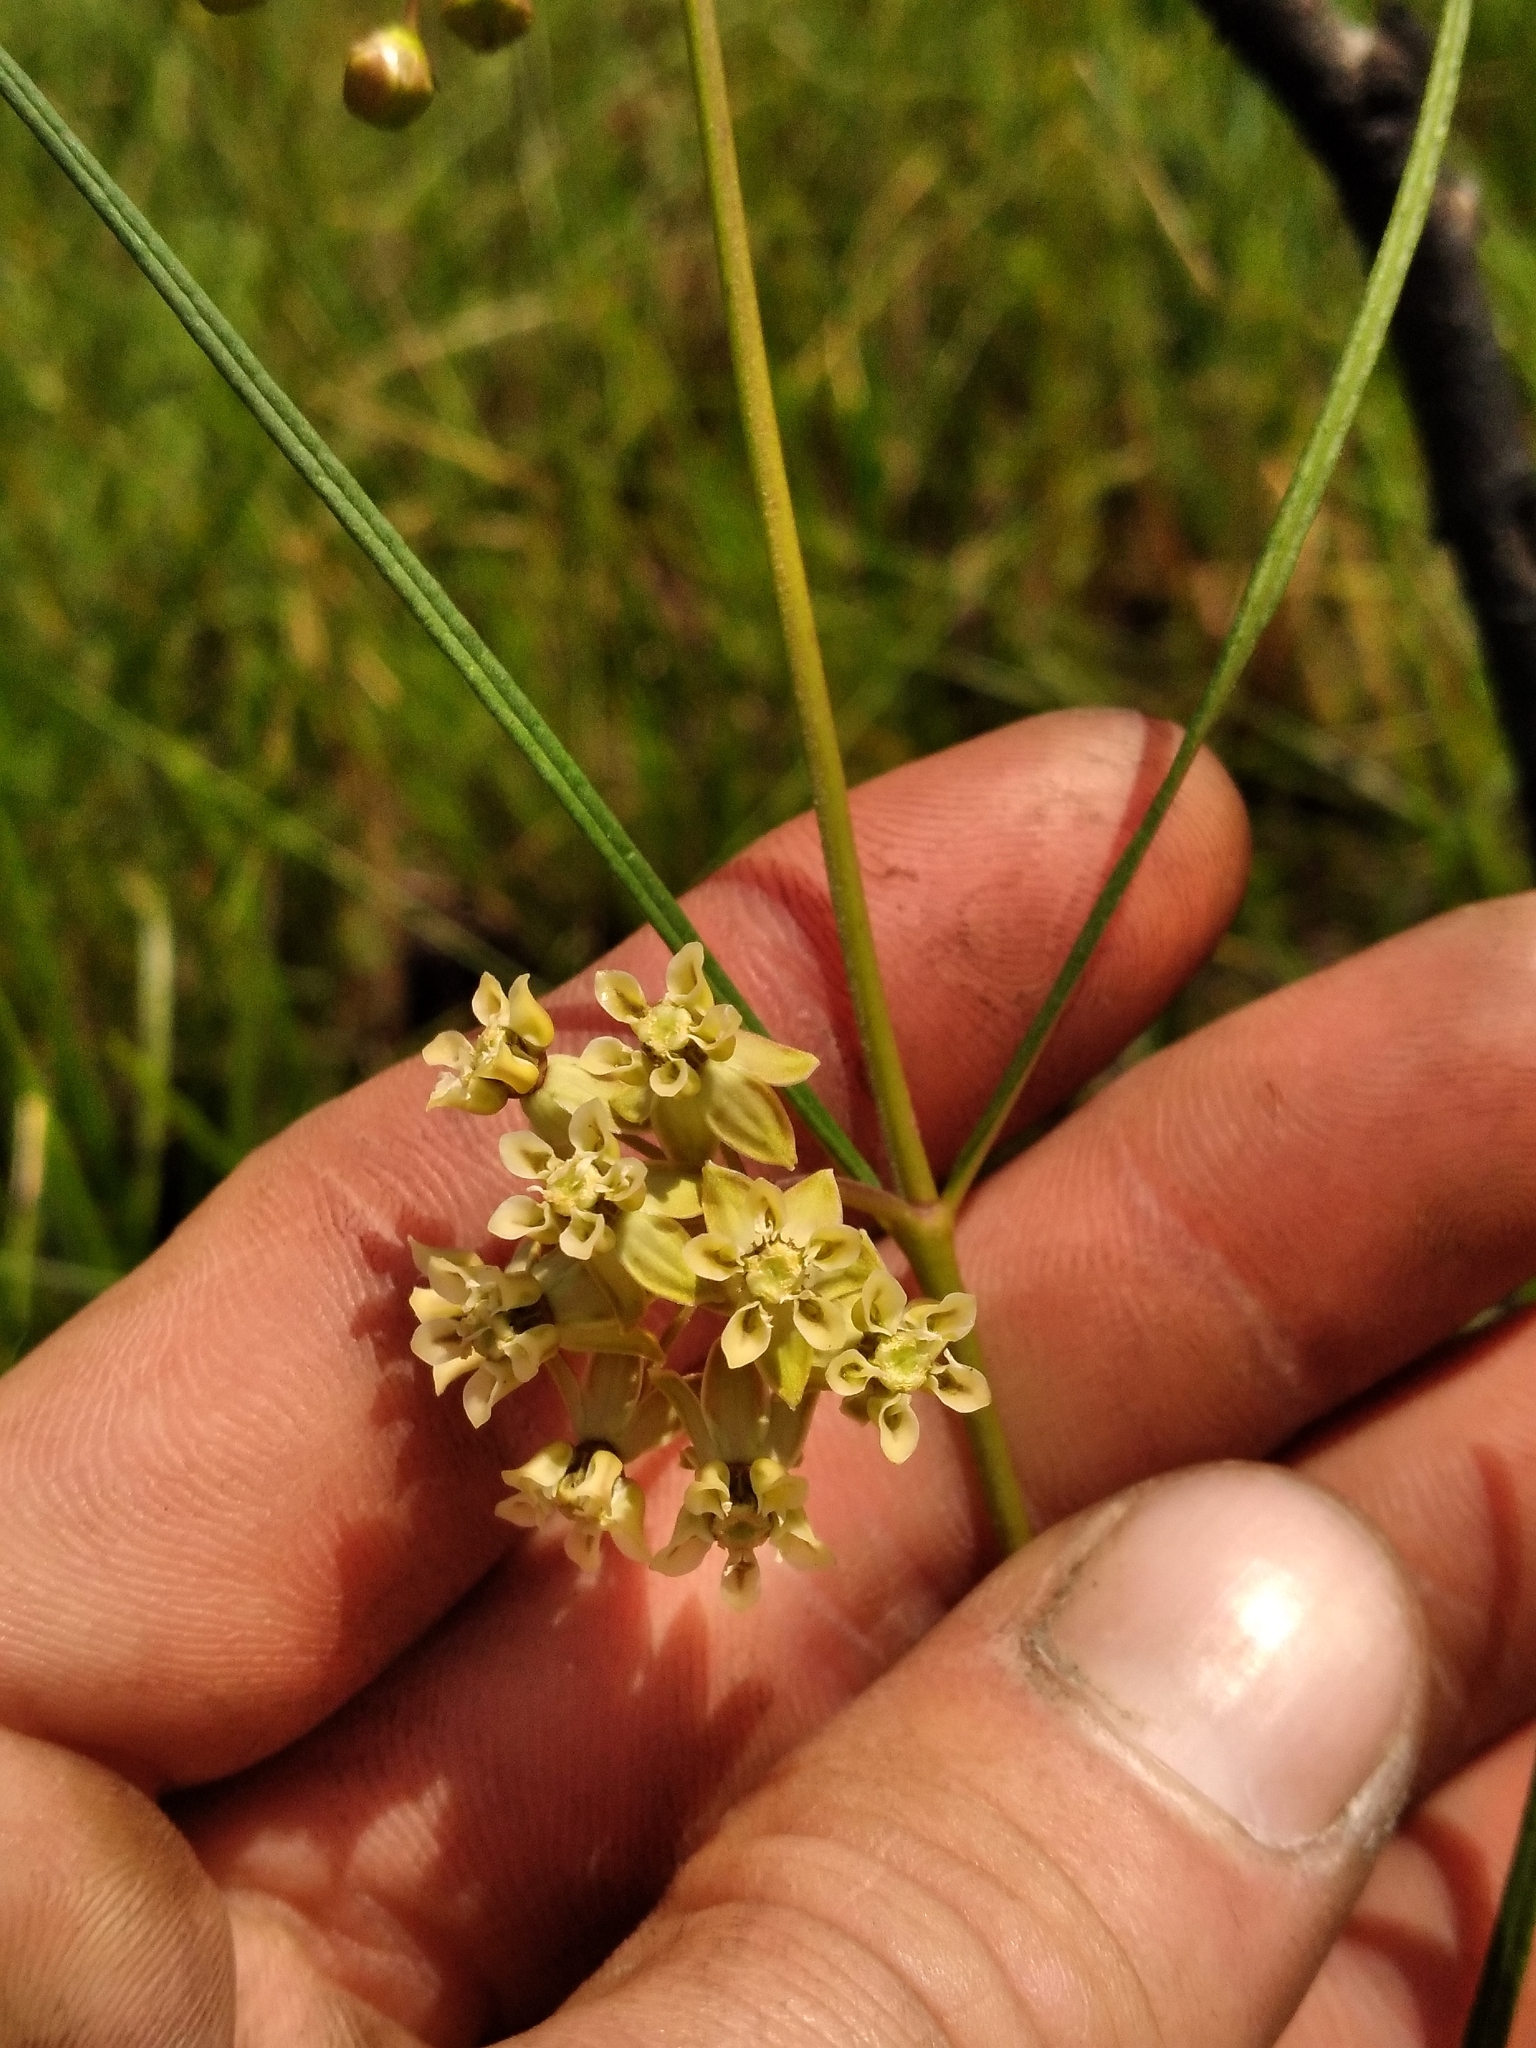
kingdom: Plantae
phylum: Tracheophyta
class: Magnoliopsida
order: Gentianales
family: Apocynaceae
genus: Asclepias
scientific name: Asclepias viridula
